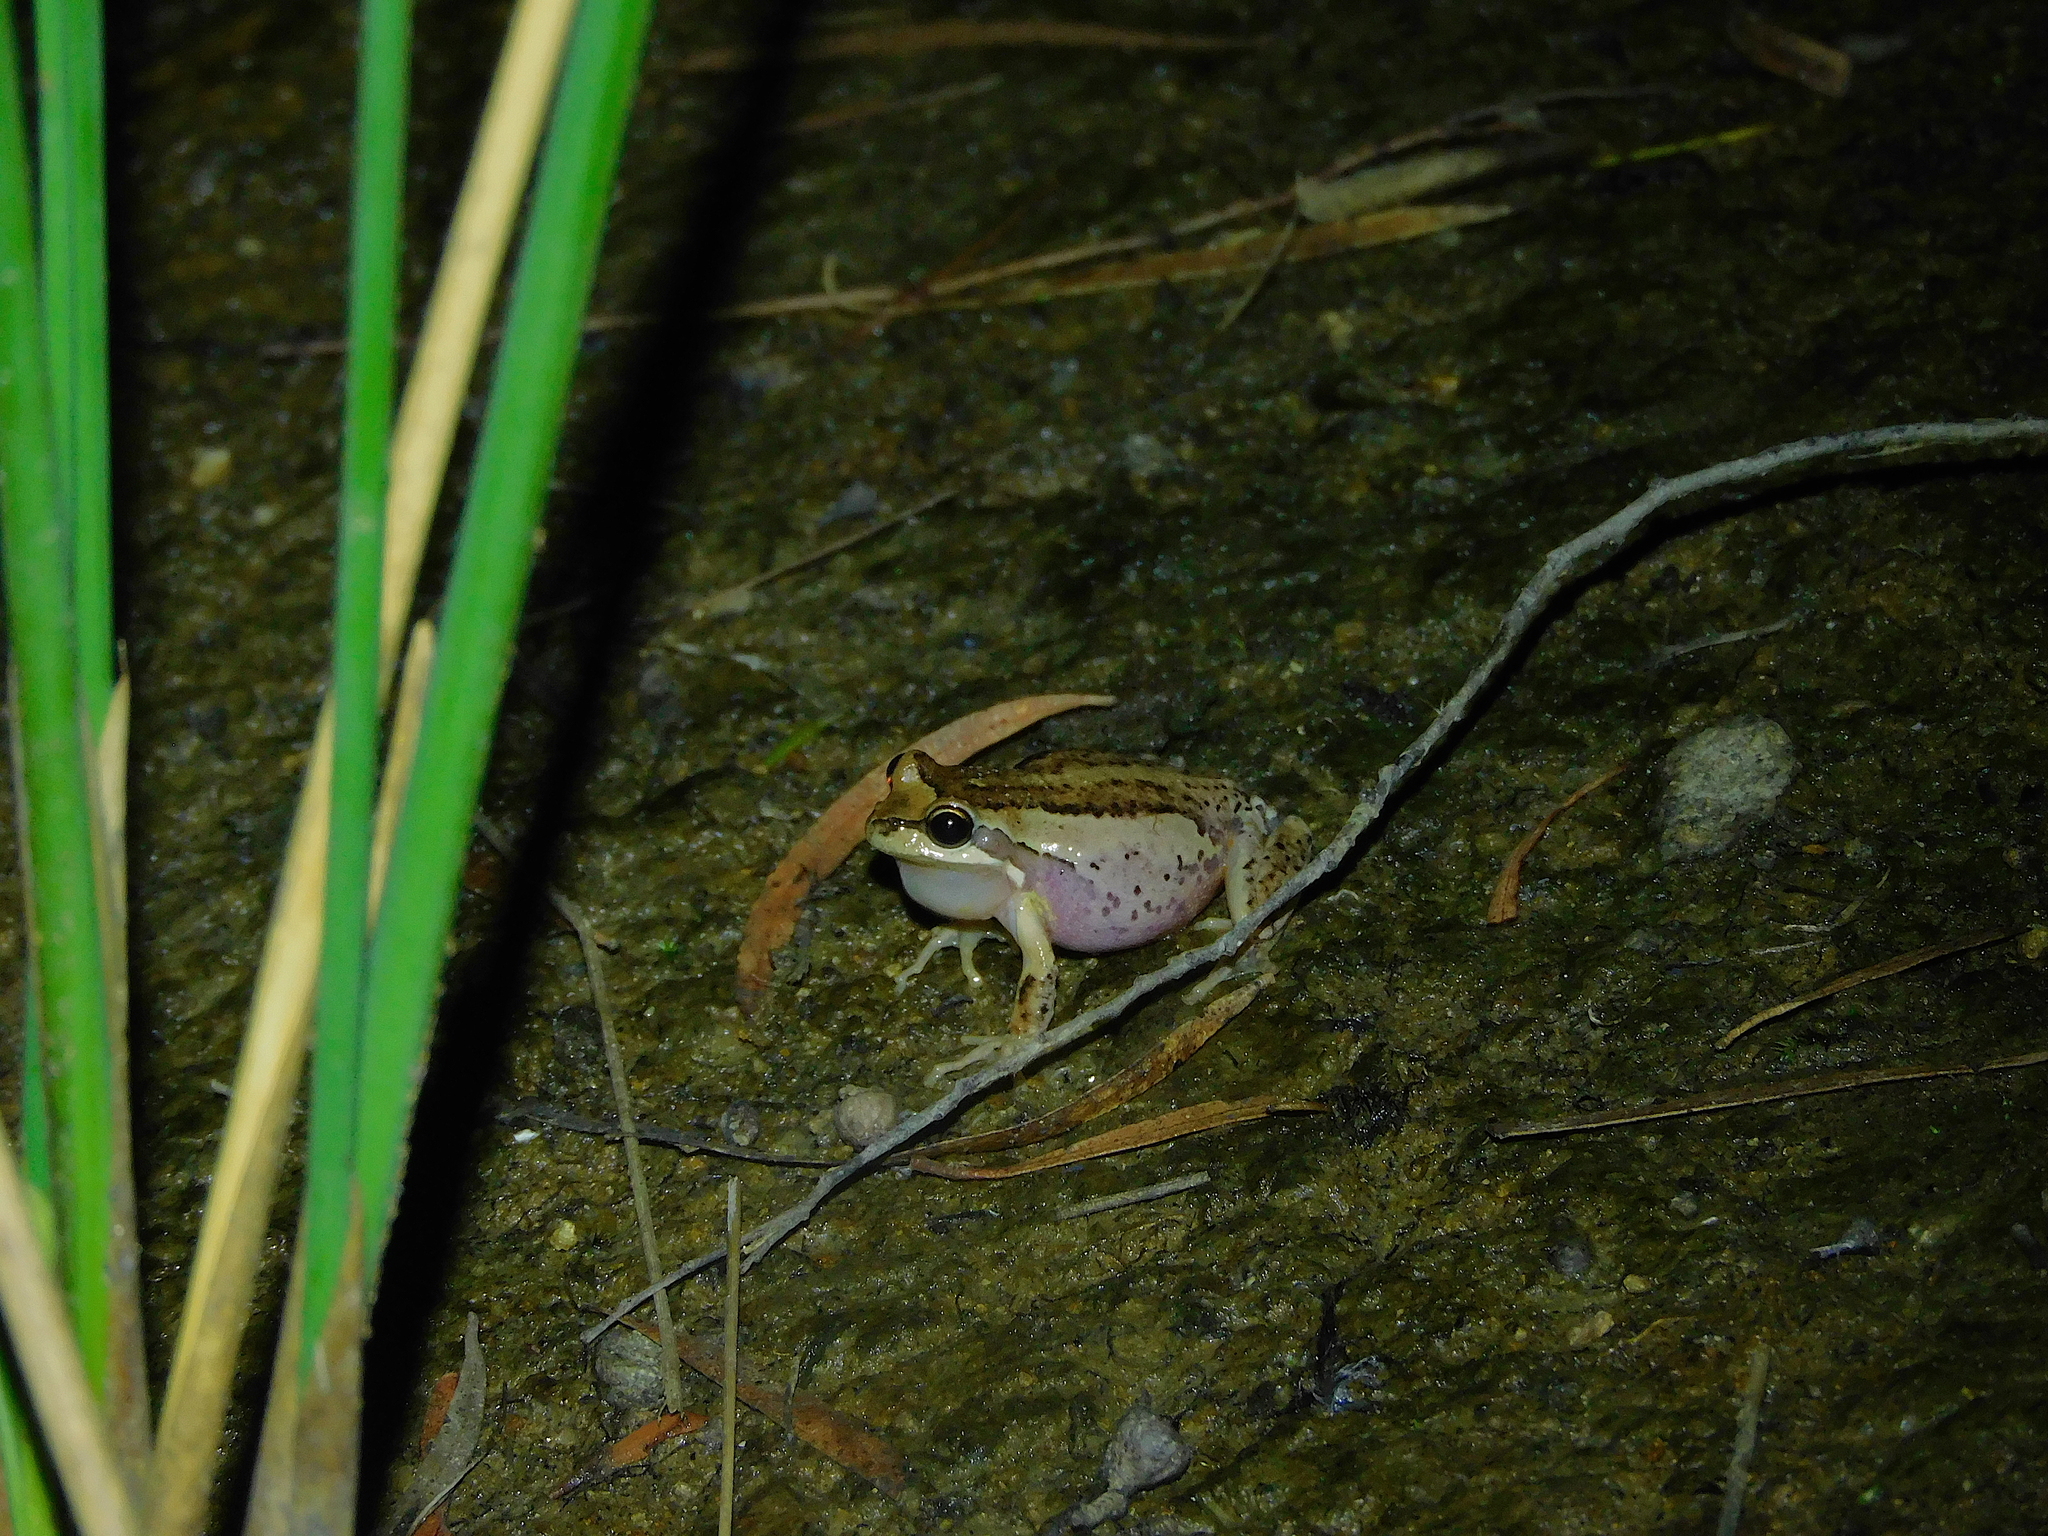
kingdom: Animalia
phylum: Chordata
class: Amphibia
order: Anura
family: Pelodryadidae
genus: Litoria
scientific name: Litoria ewingii
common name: Southern brown tree frog
